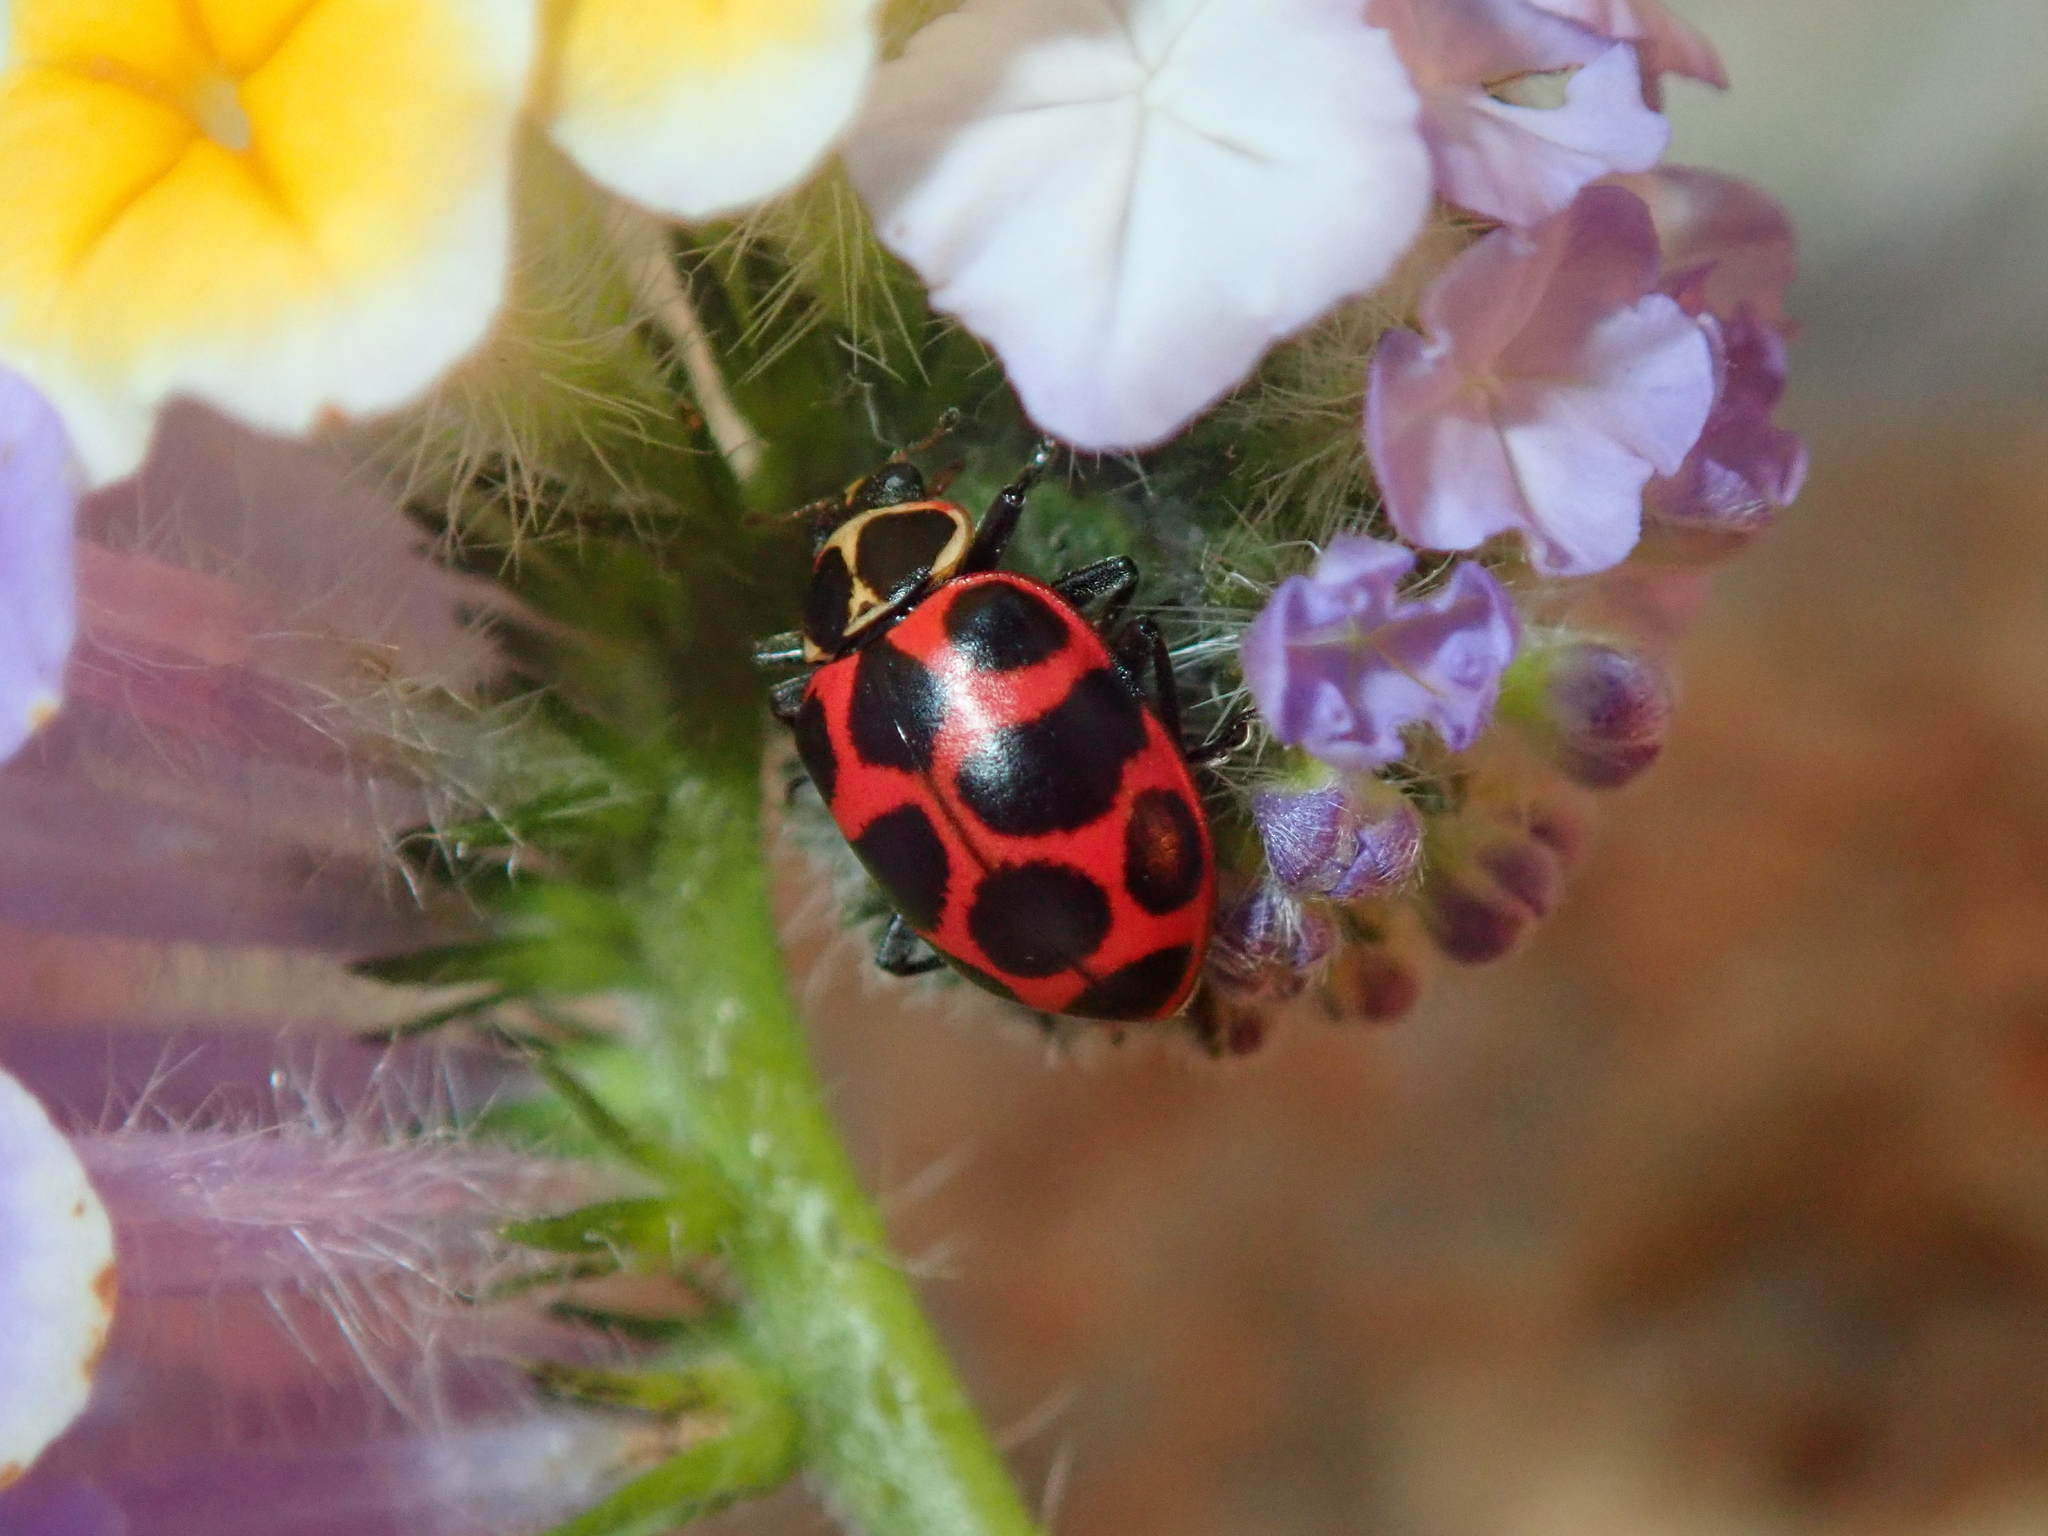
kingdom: Animalia
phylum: Arthropoda
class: Insecta
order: Coleoptera
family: Coccinellidae
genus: Coleomegilla
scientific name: Coleomegilla maculata
